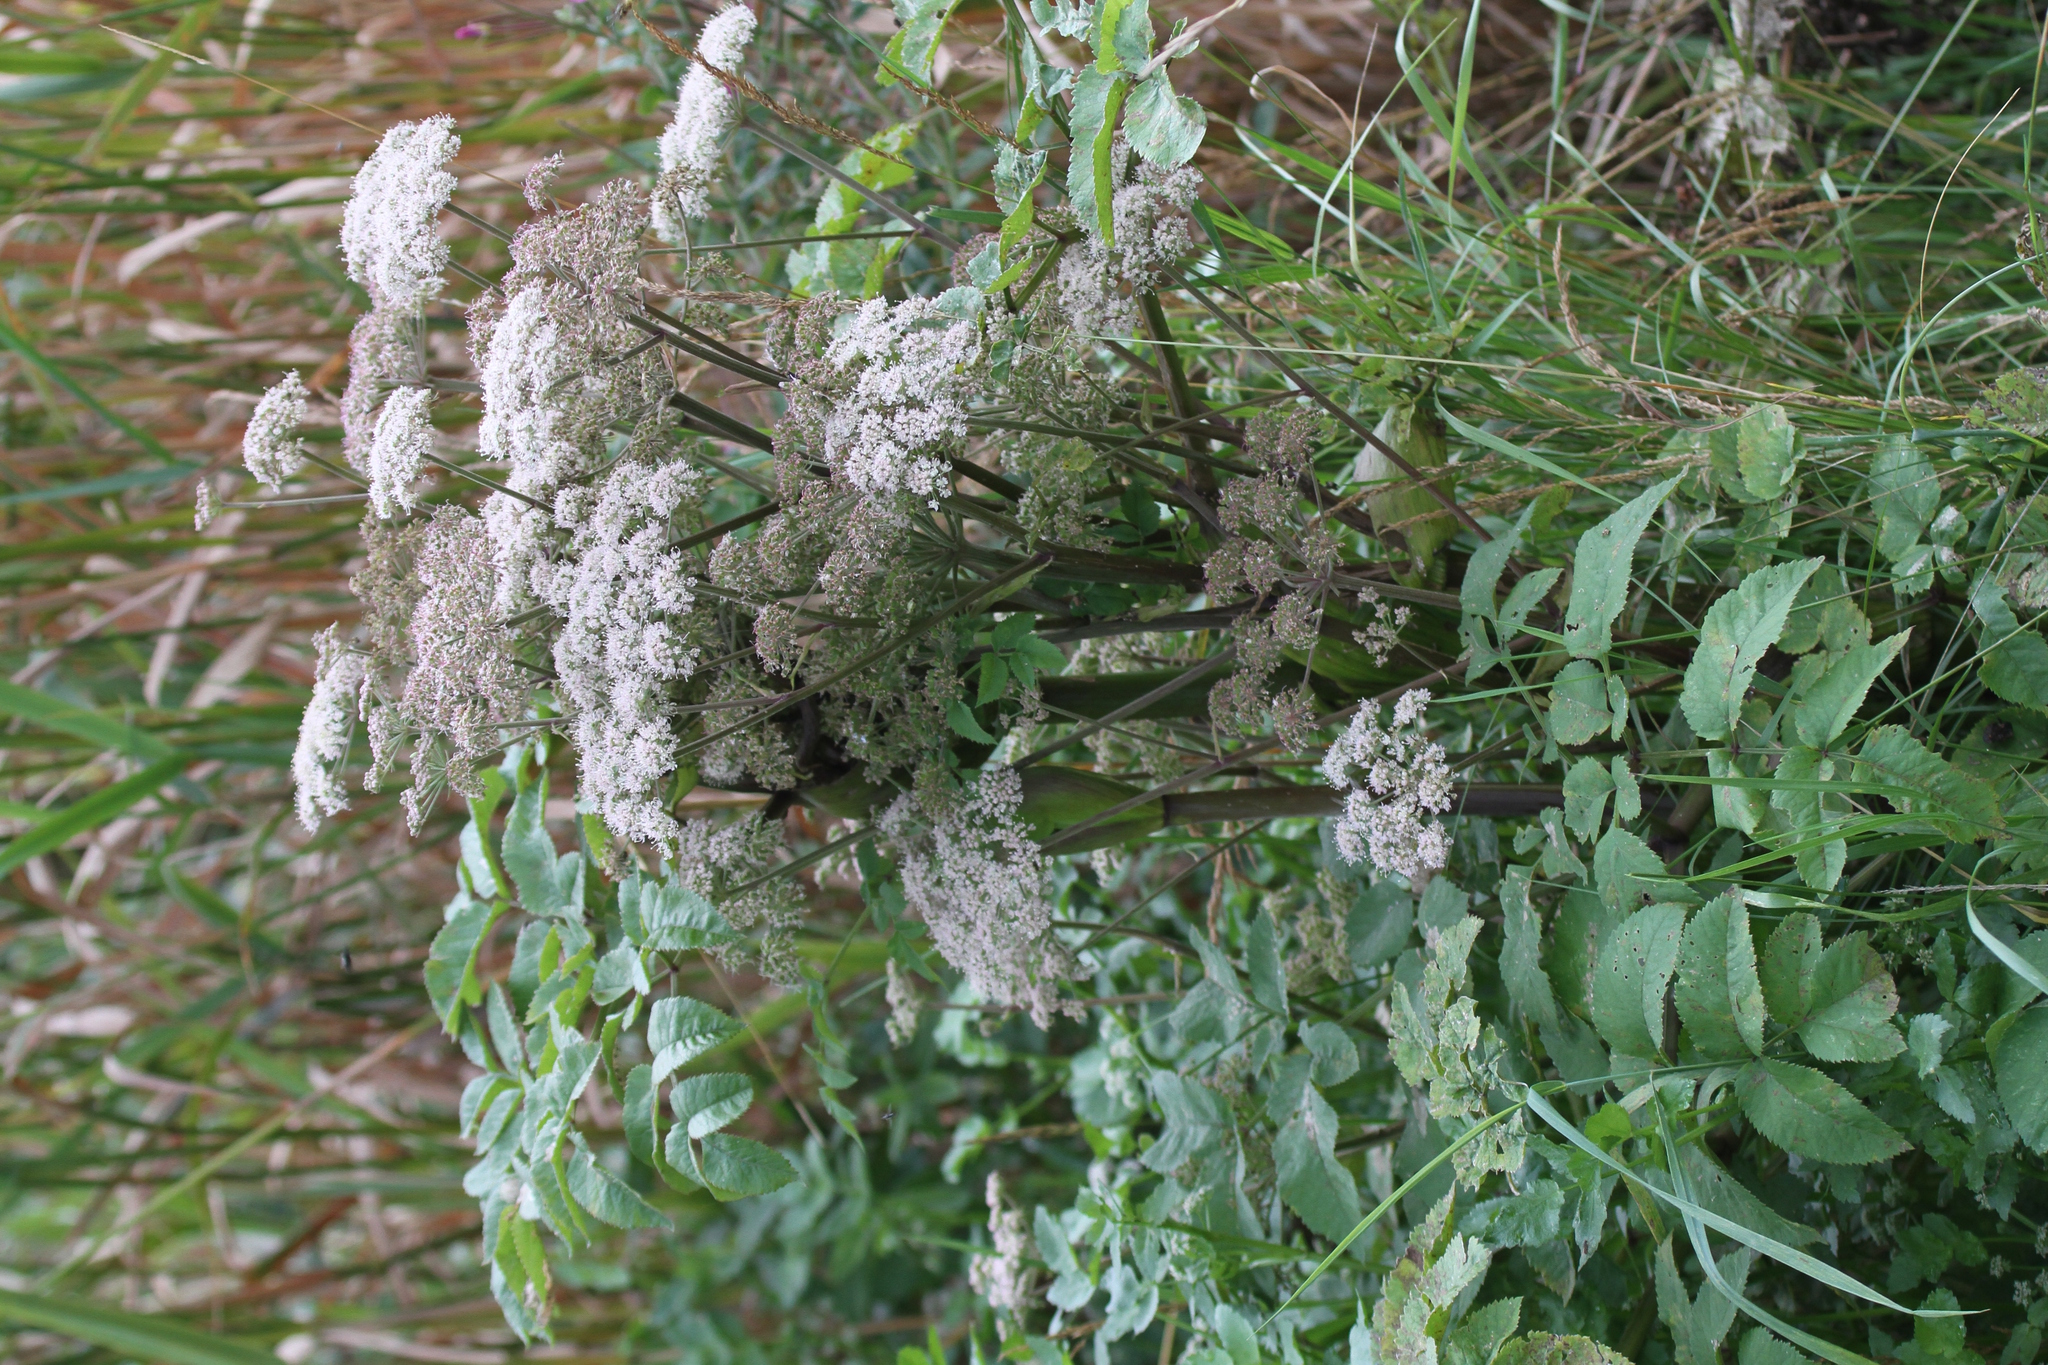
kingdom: Plantae
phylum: Tracheophyta
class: Magnoliopsida
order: Apiales
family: Apiaceae
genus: Angelica
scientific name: Angelica sylvestris
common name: Wild angelica
